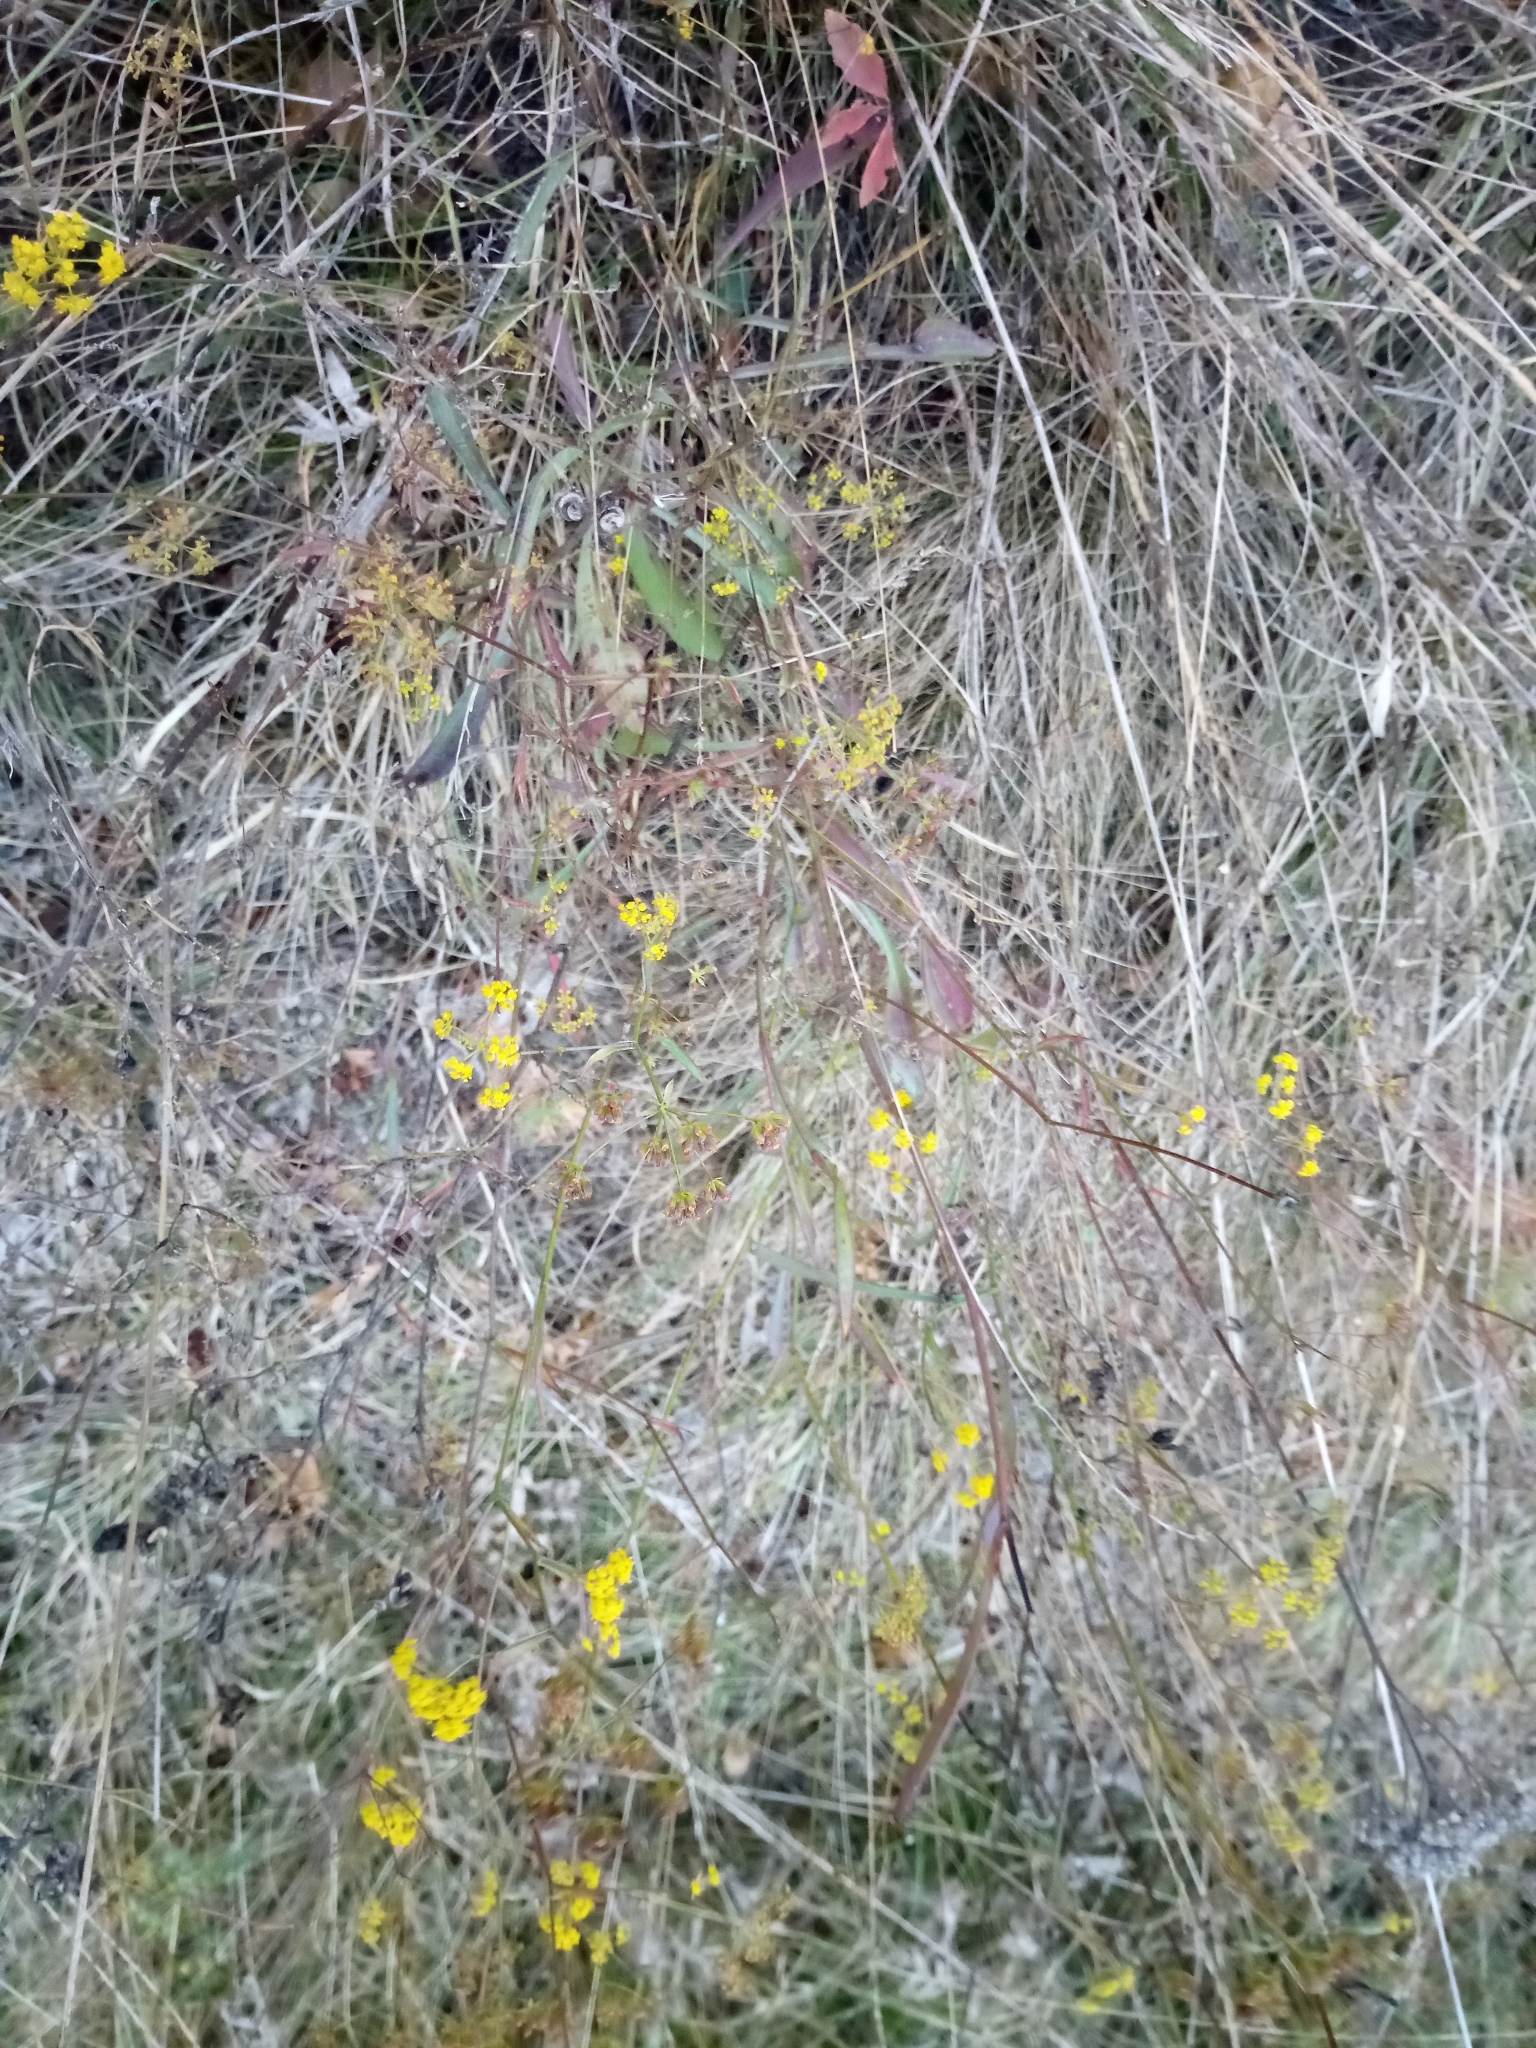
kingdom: Plantae
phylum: Tracheophyta
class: Magnoliopsida
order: Apiales
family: Apiaceae
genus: Bupleurum
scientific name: Bupleurum falcatum
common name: Sickle-leaved hare's-ear
